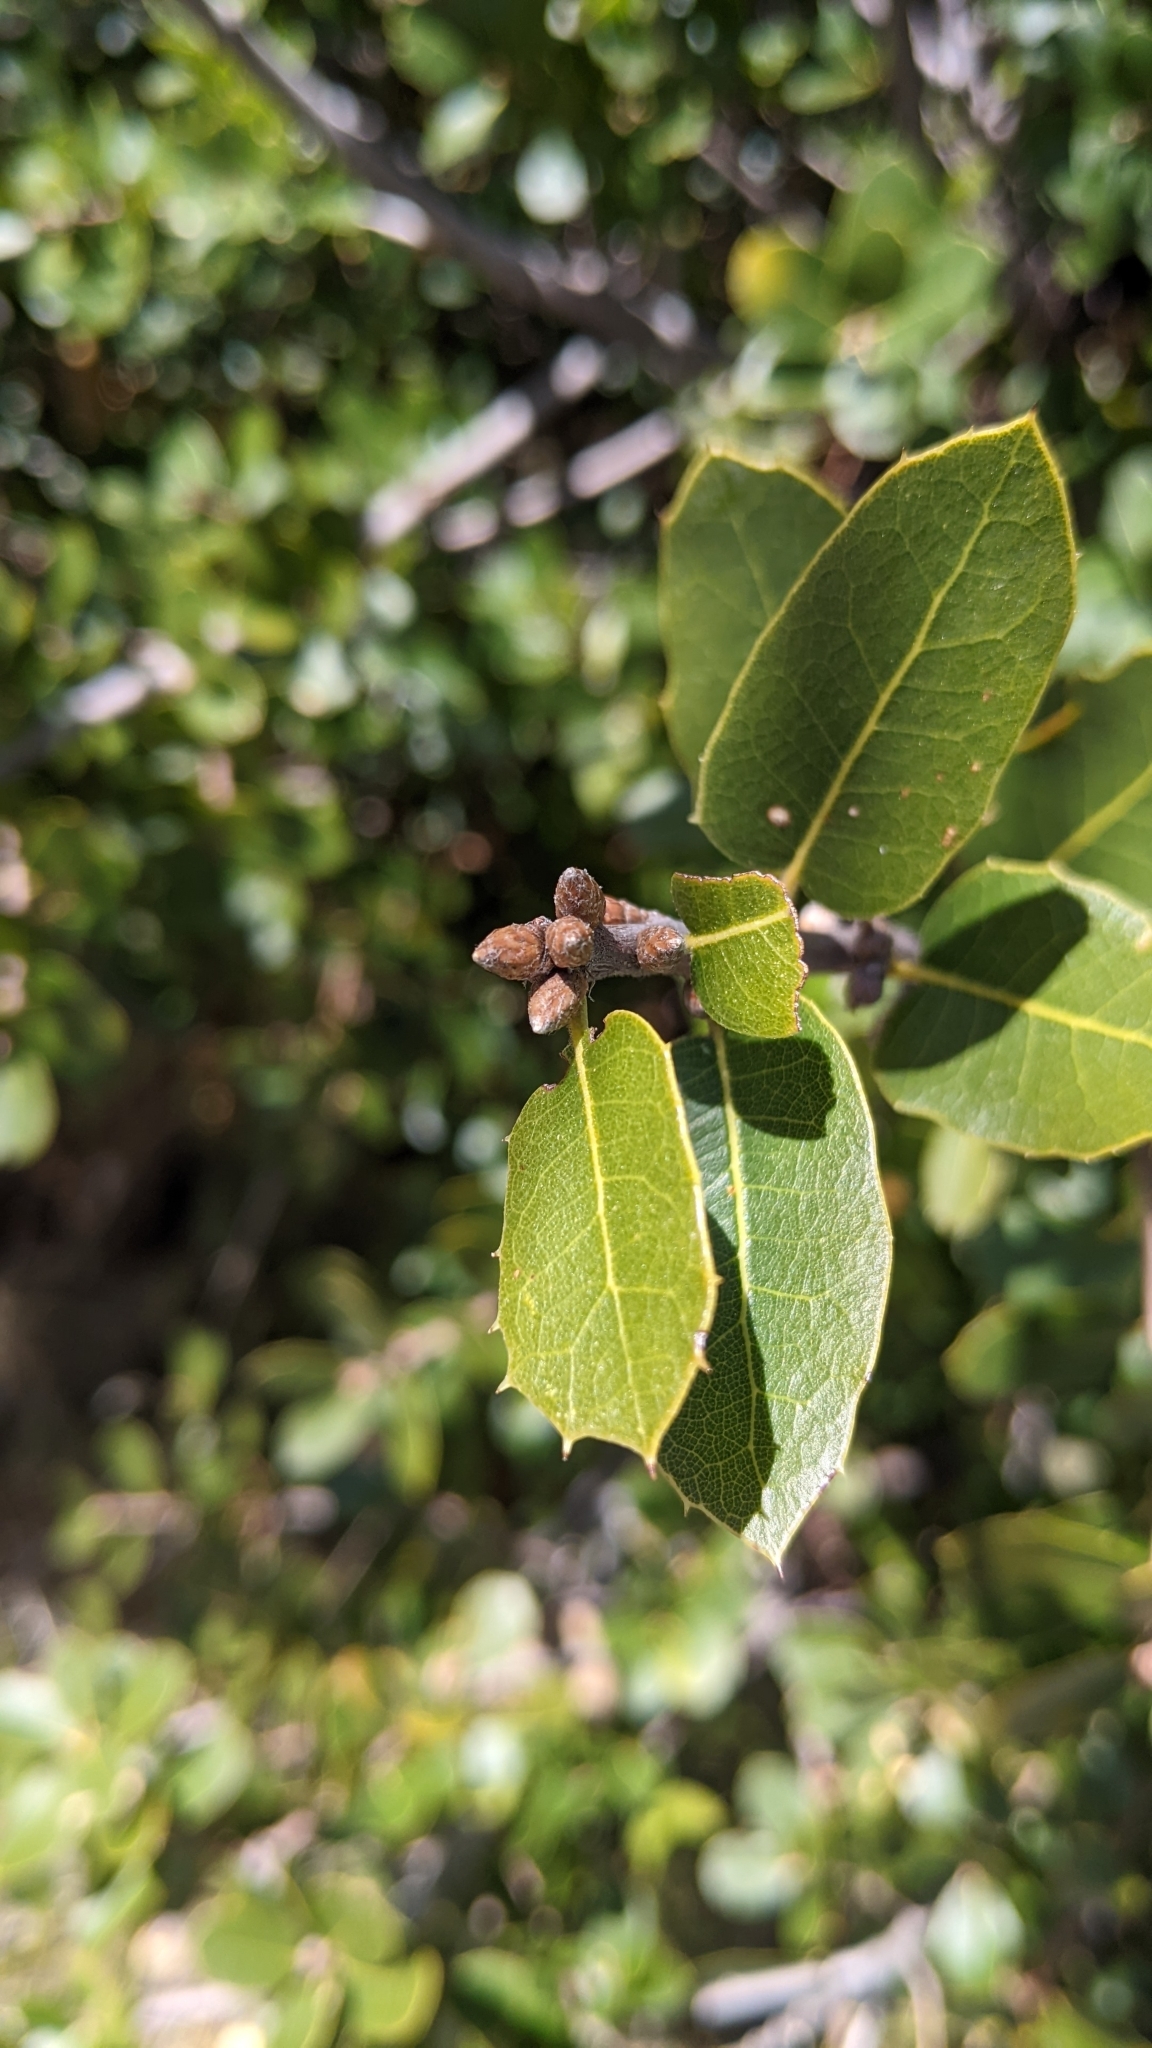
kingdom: Plantae
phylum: Tracheophyta
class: Magnoliopsida
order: Fagales
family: Fagaceae
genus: Quercus
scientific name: Quercus wislizeni
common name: Interior live oak
